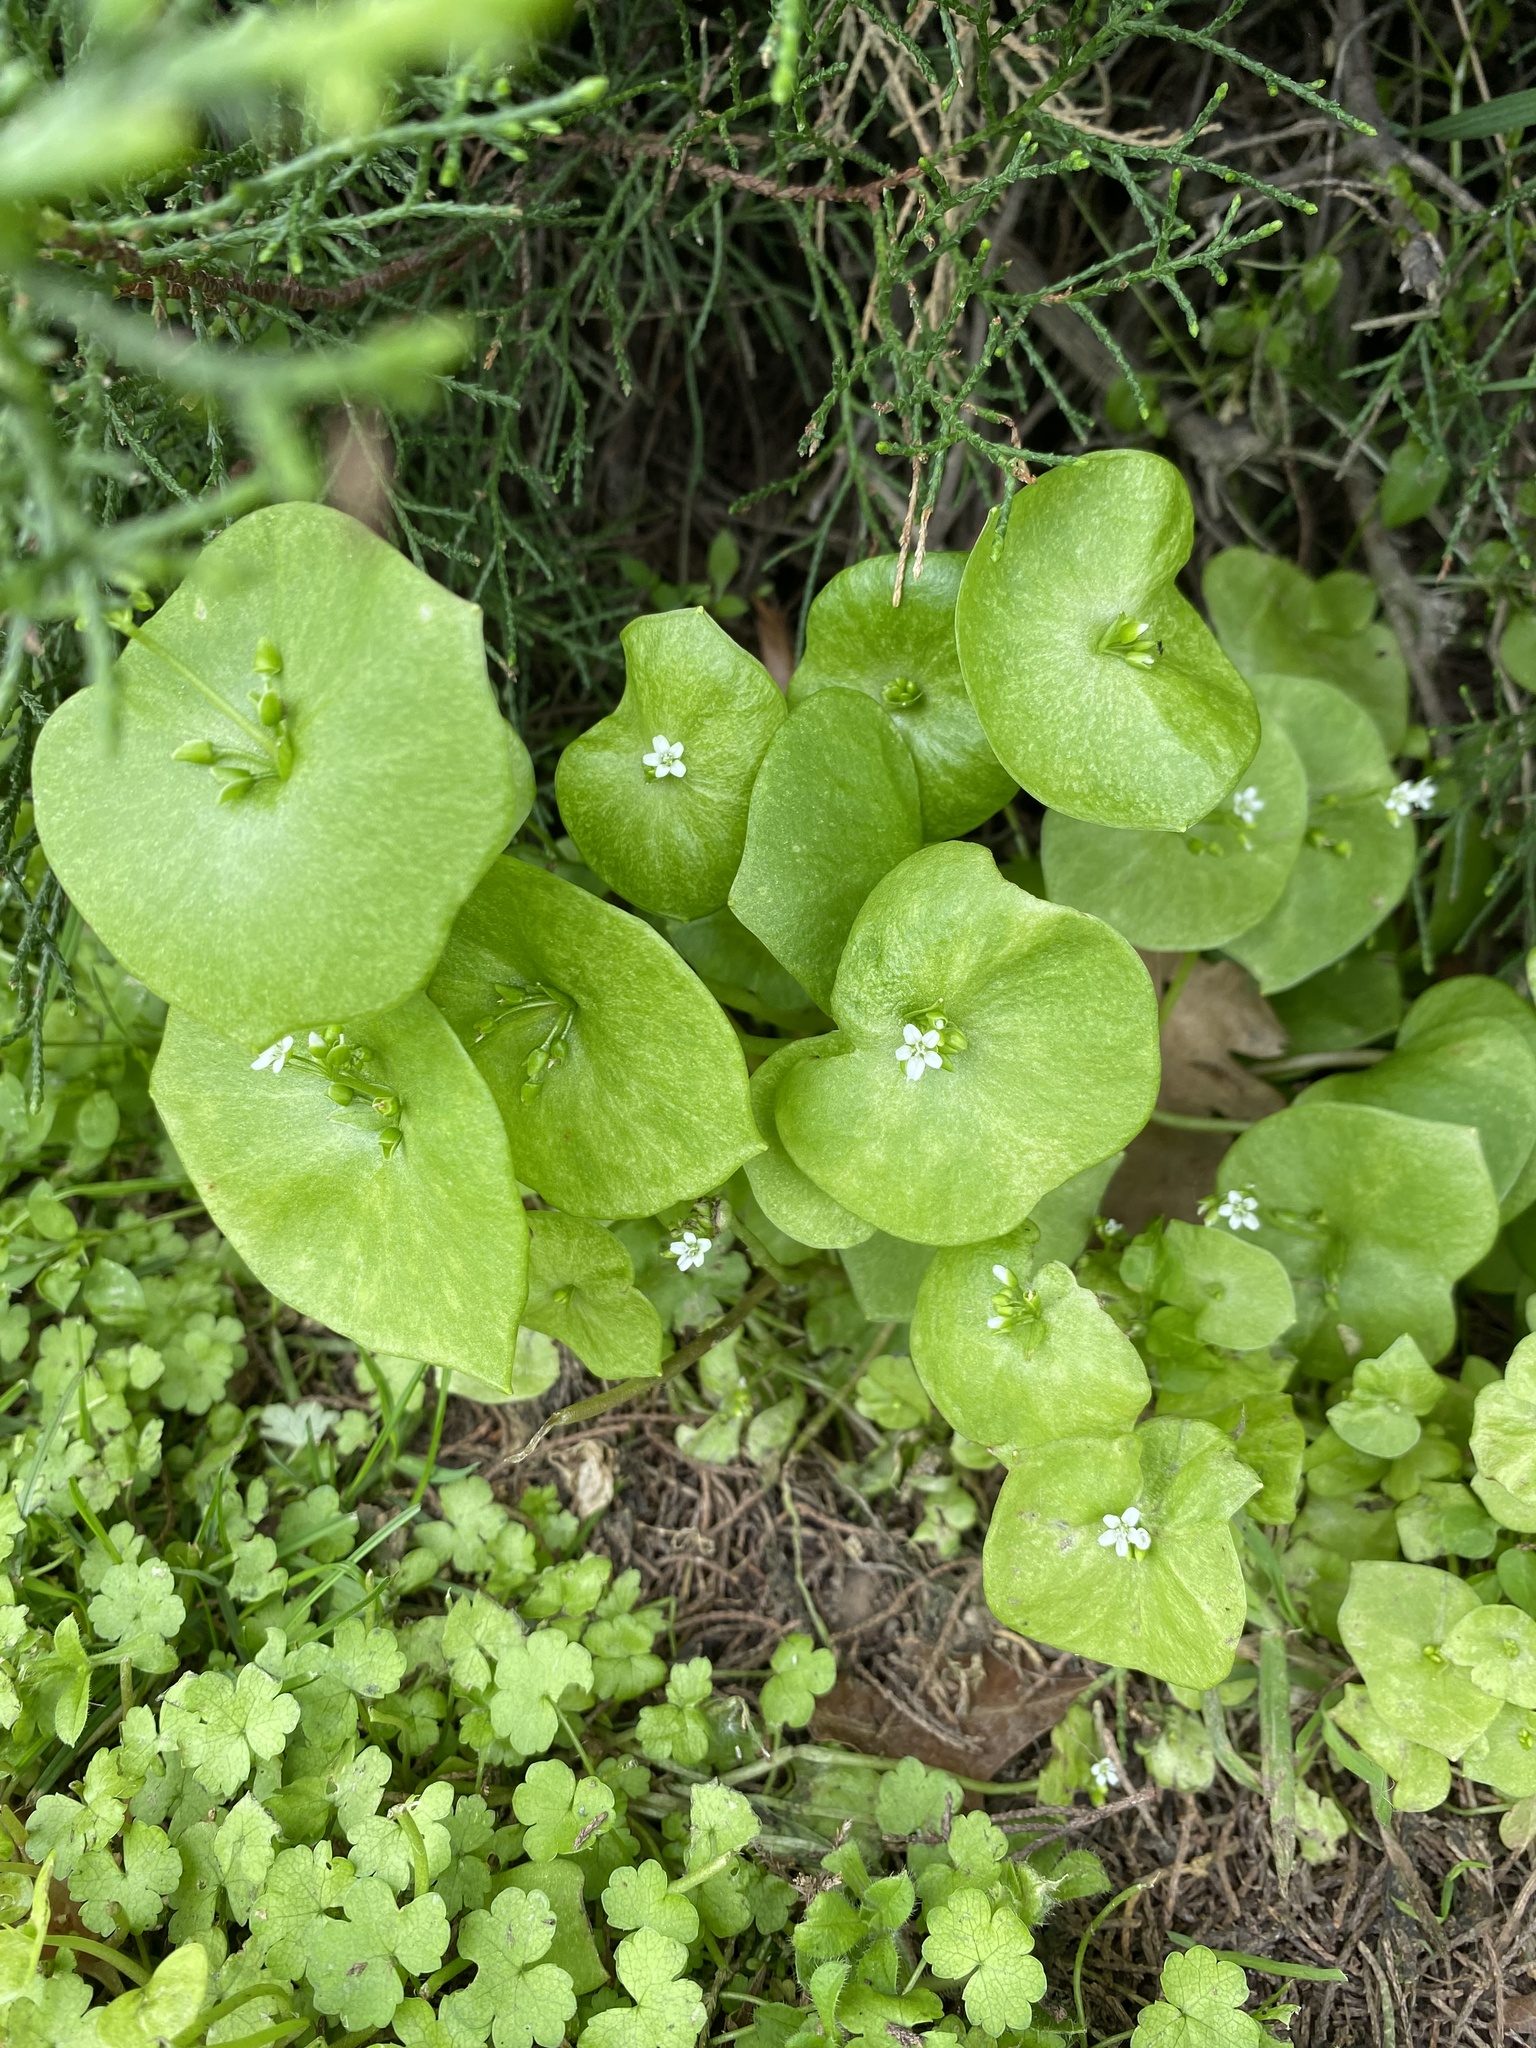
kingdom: Plantae
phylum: Tracheophyta
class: Magnoliopsida
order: Caryophyllales
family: Montiaceae
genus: Claytonia
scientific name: Claytonia perfoliata
